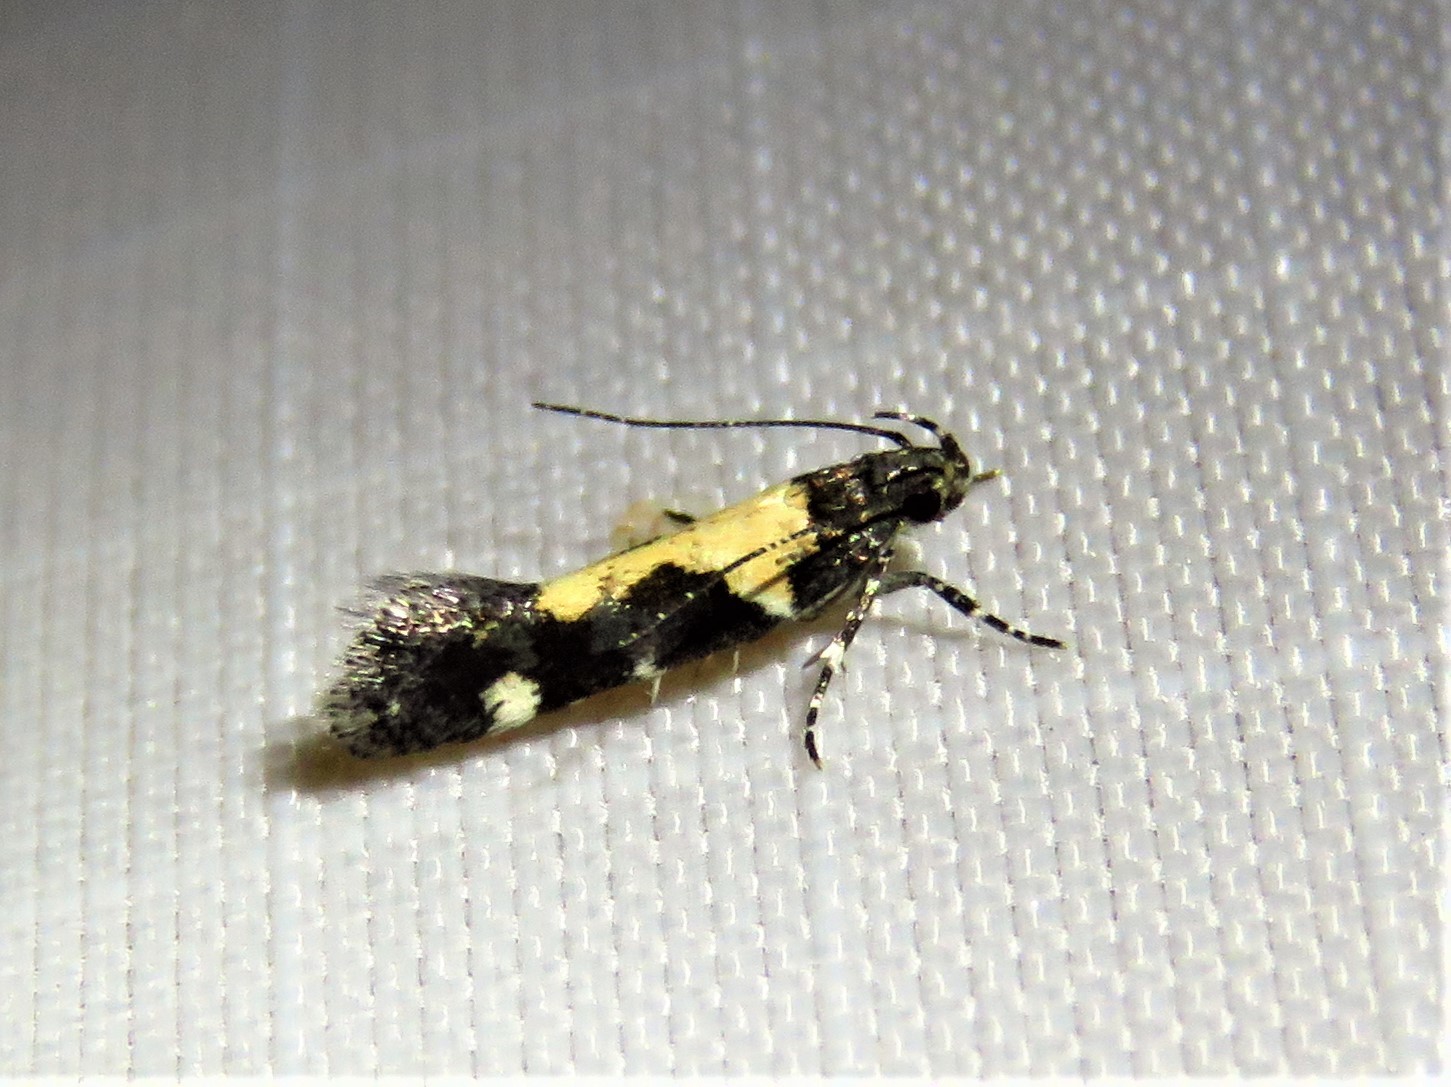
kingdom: Animalia
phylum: Arthropoda
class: Insecta
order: Lepidoptera
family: Gelechiidae
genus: Stegasta
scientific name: Stegasta bosqueella
